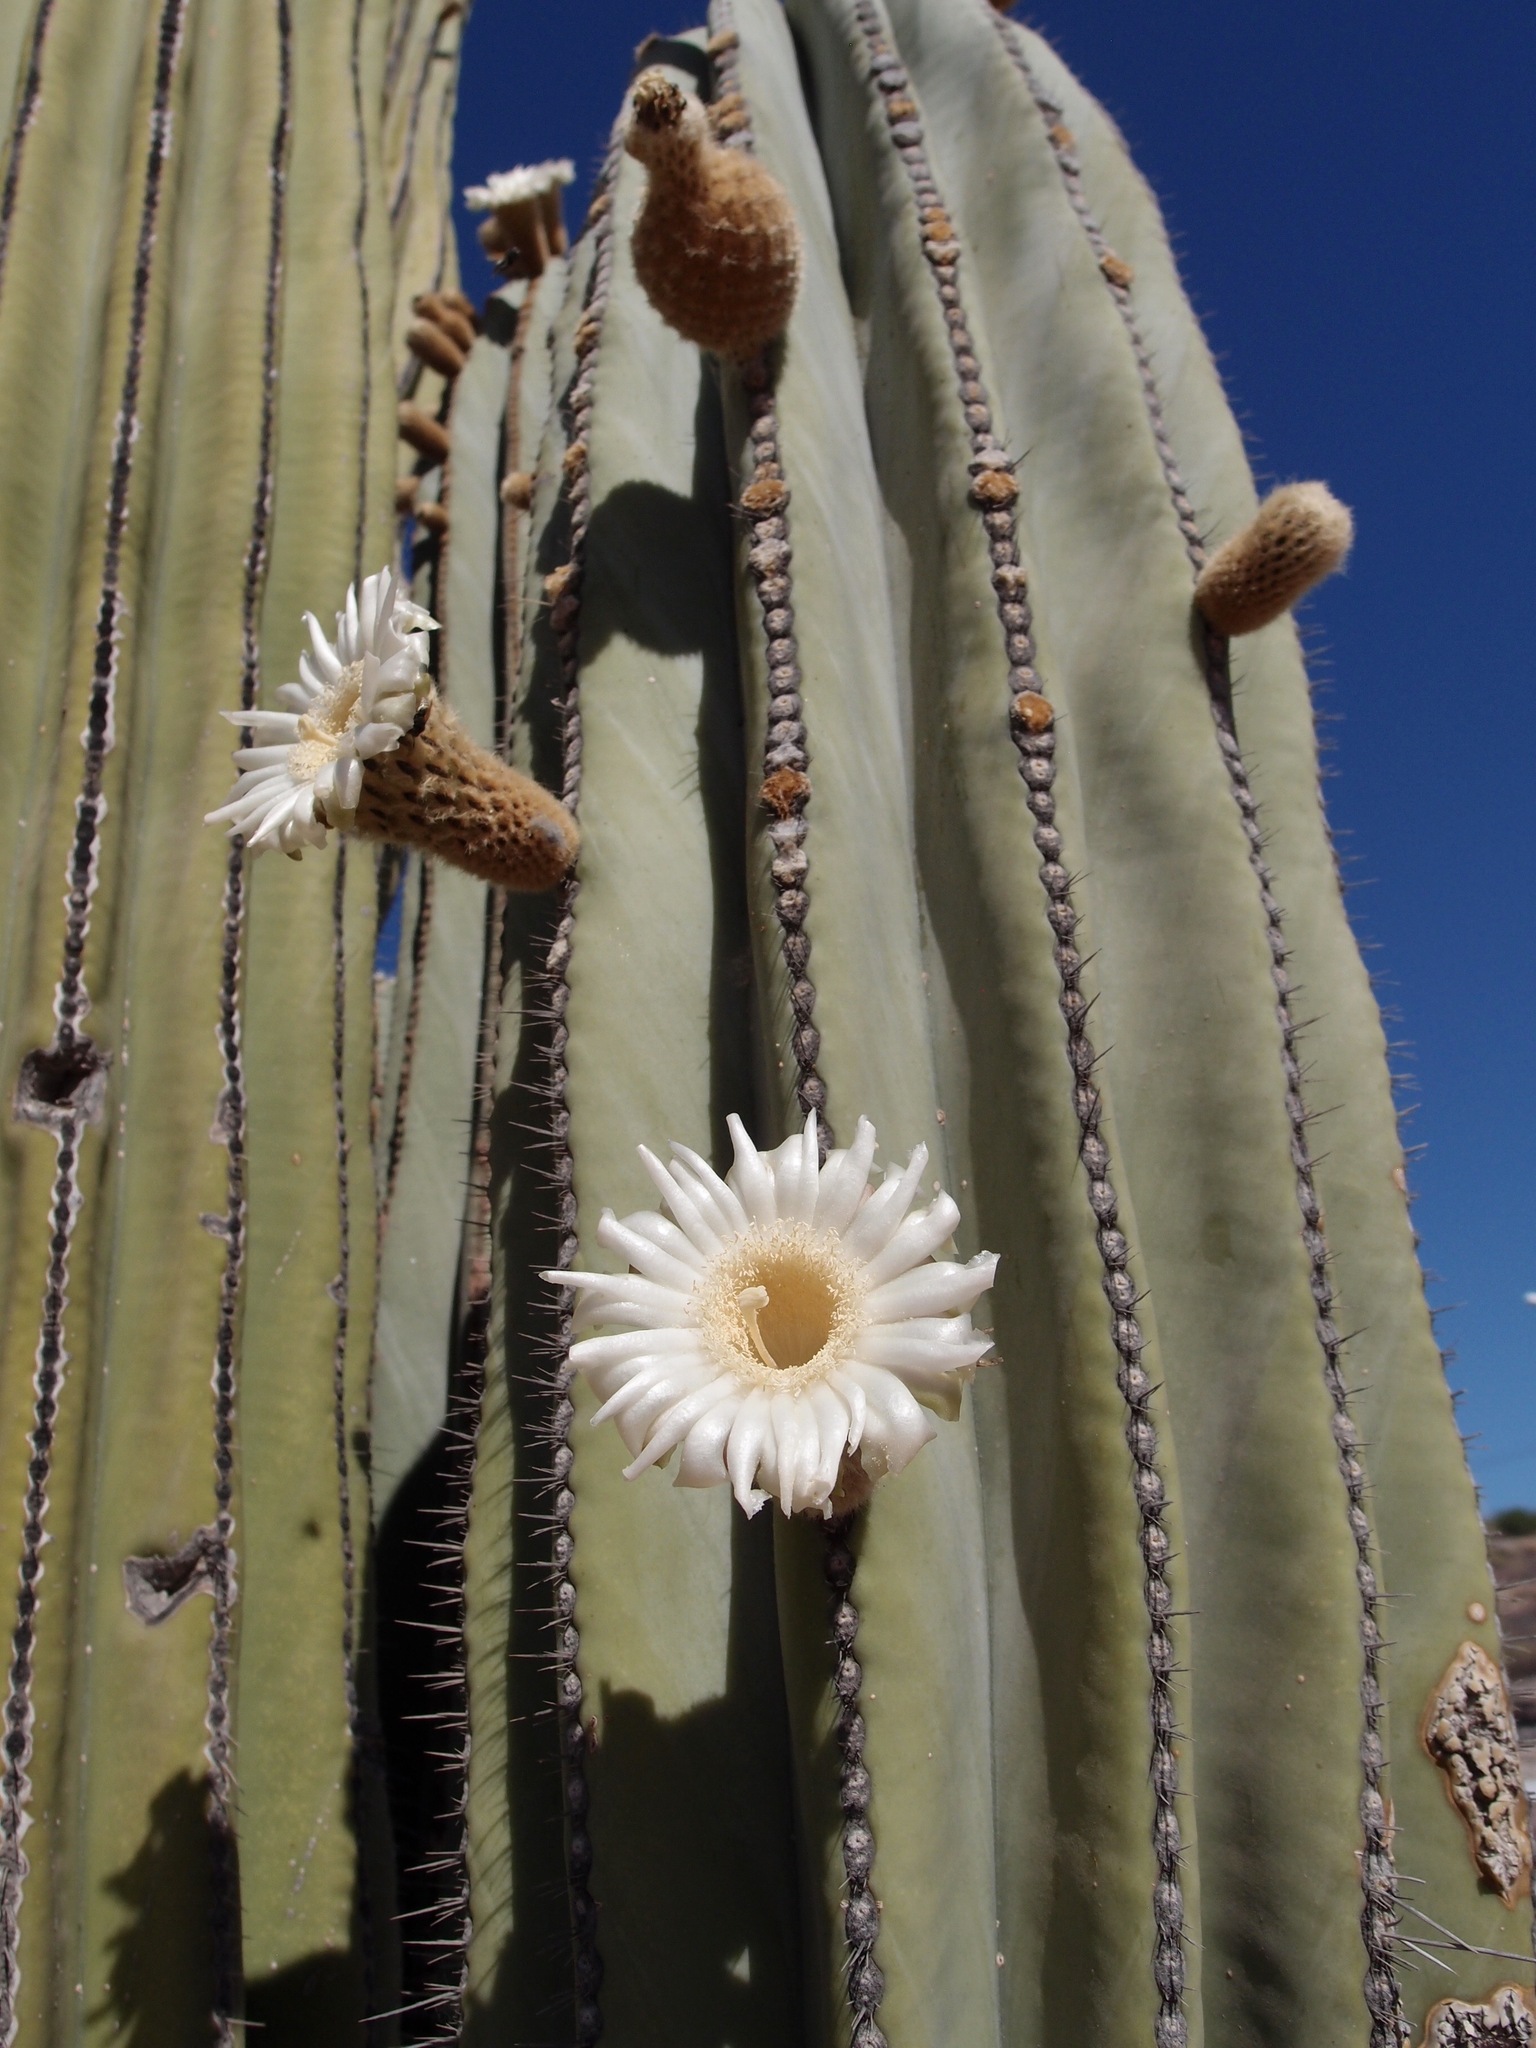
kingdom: Plantae
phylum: Tracheophyta
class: Magnoliopsida
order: Caryophyllales
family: Cactaceae
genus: Pachycereus
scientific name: Pachycereus pringlei
